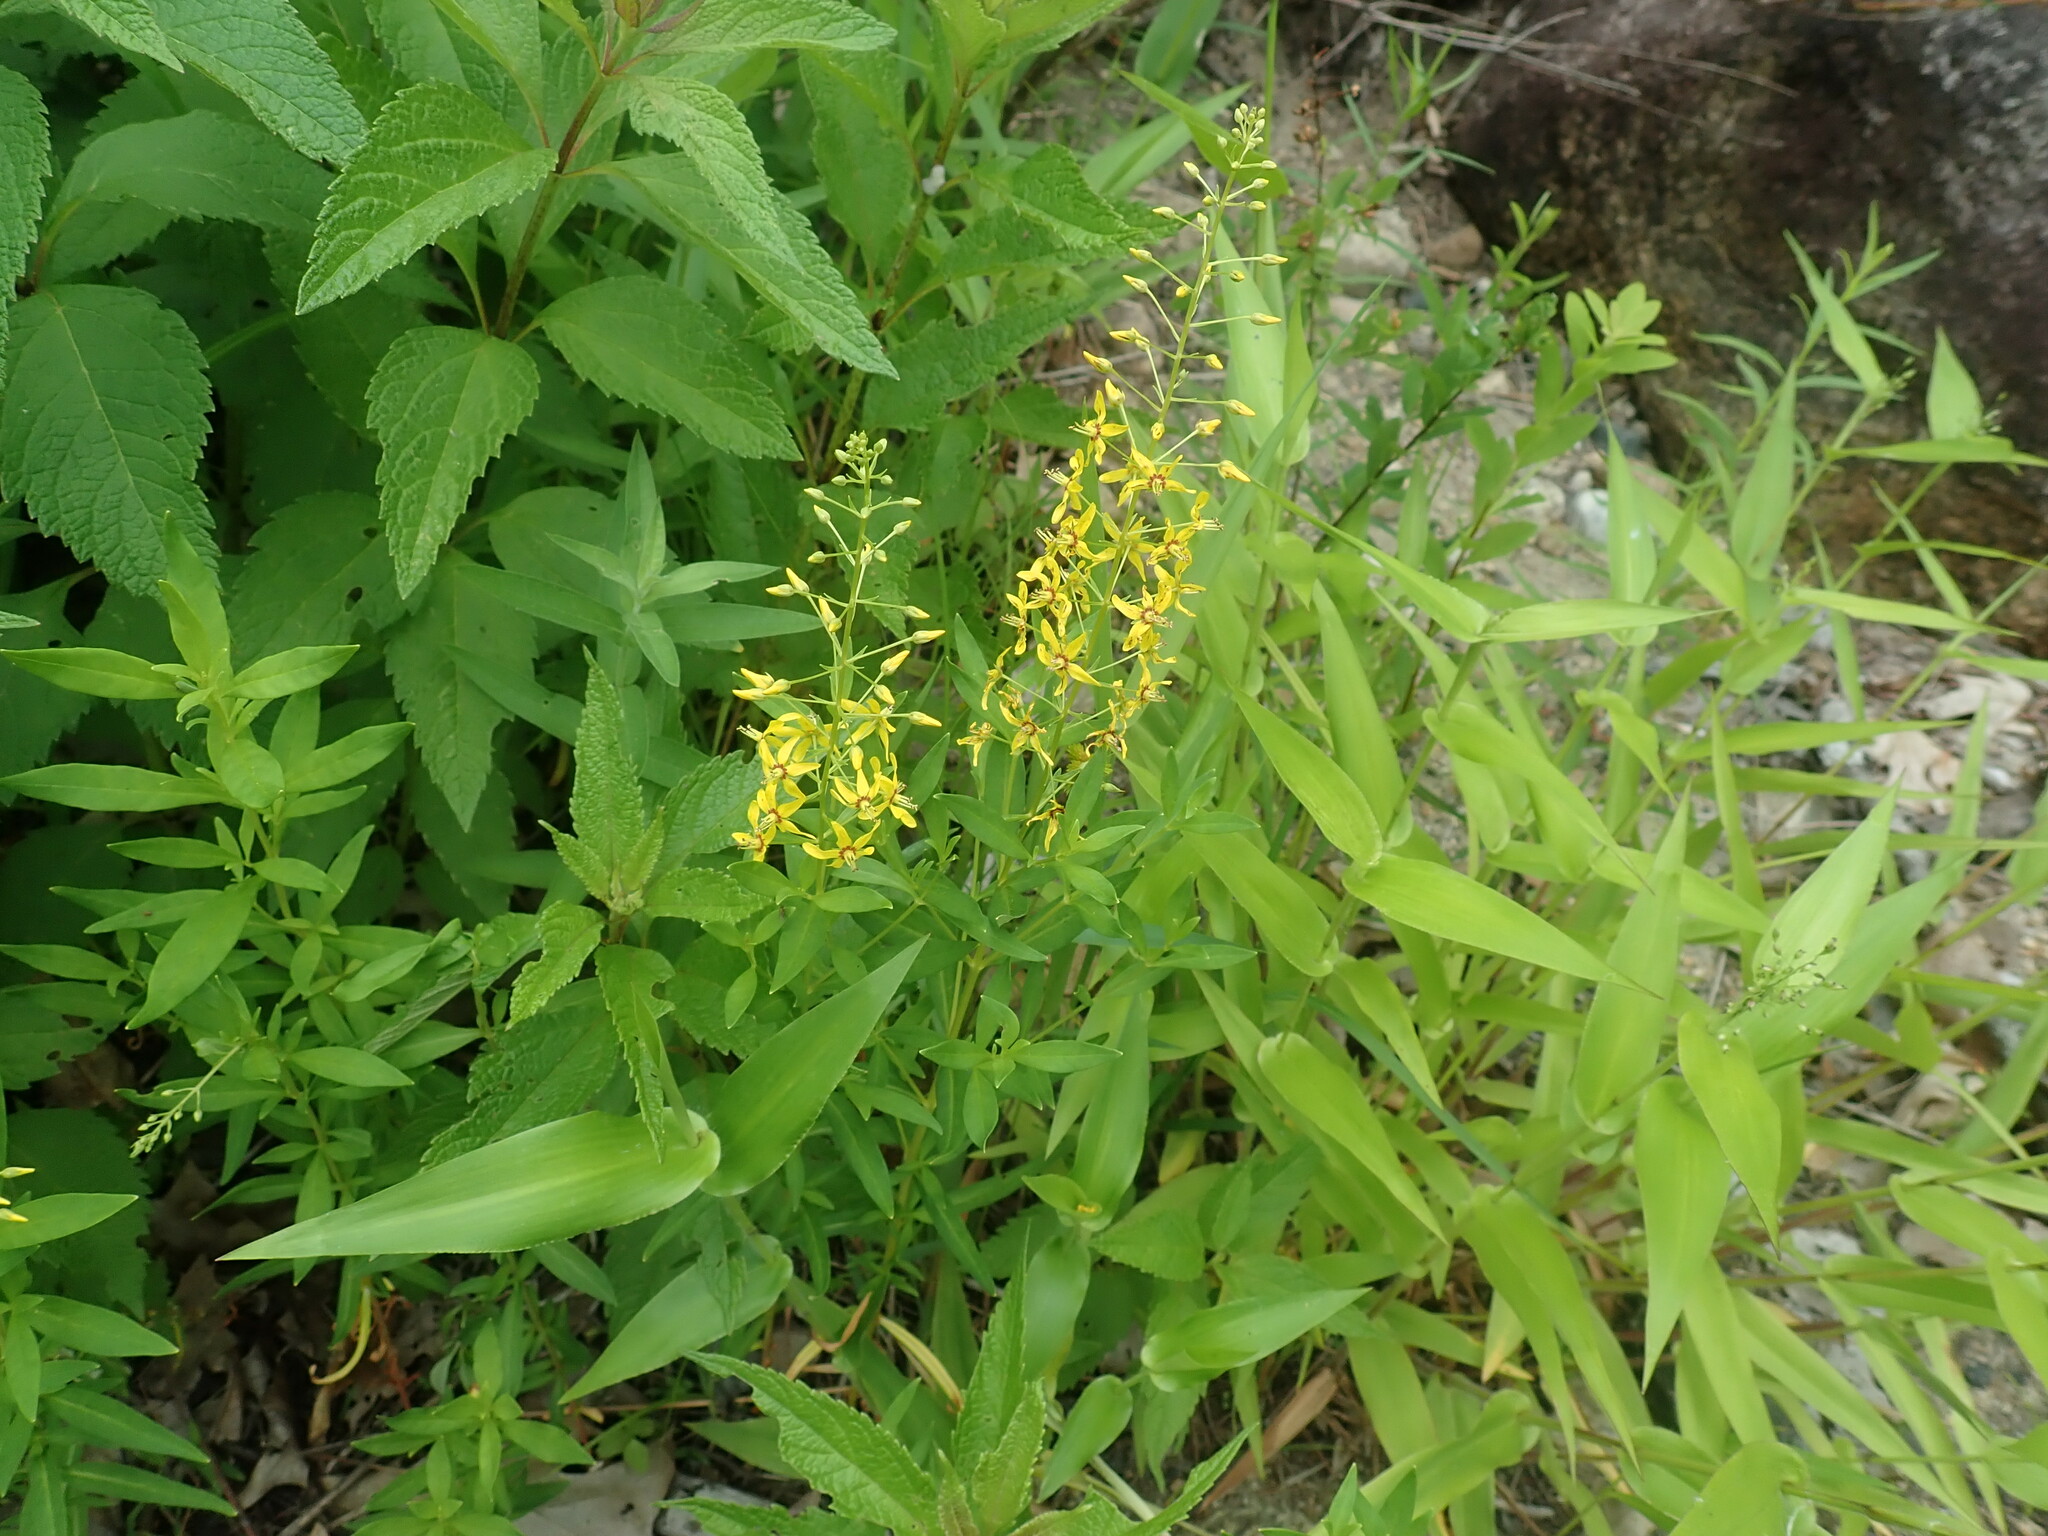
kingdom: Plantae
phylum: Tracheophyta
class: Magnoliopsida
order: Ericales
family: Primulaceae
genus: Lysimachia
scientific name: Lysimachia terrestris
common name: Lake loosestrife
